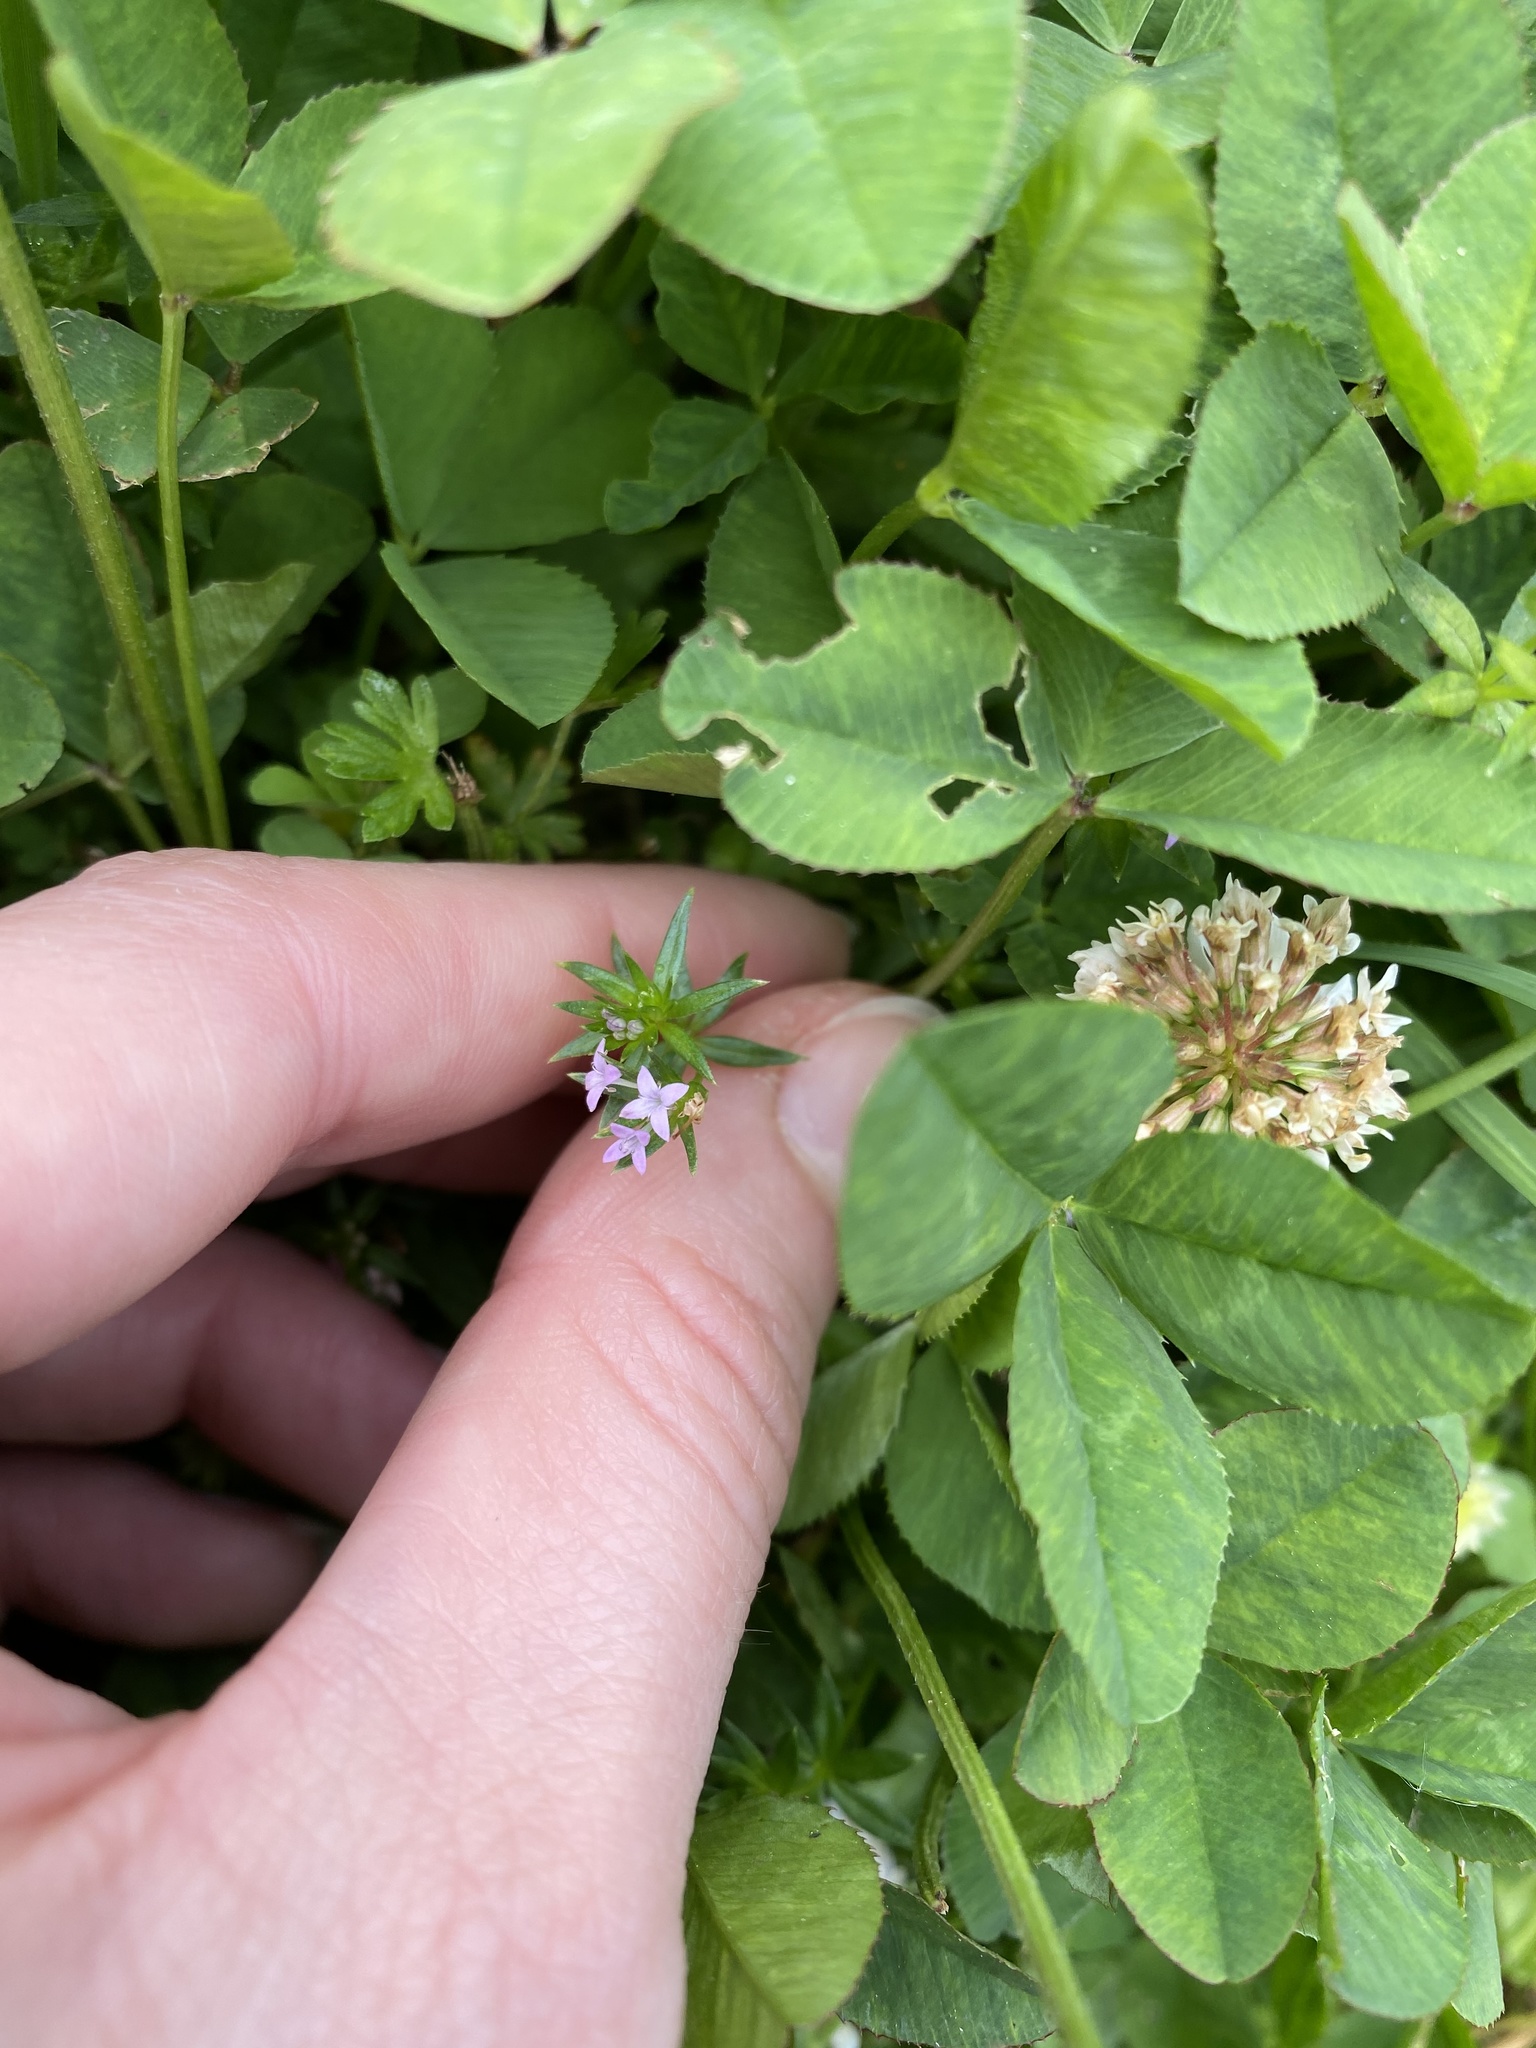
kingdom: Plantae
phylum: Tracheophyta
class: Magnoliopsida
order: Gentianales
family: Rubiaceae
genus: Sherardia
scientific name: Sherardia arvensis
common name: Field madder
